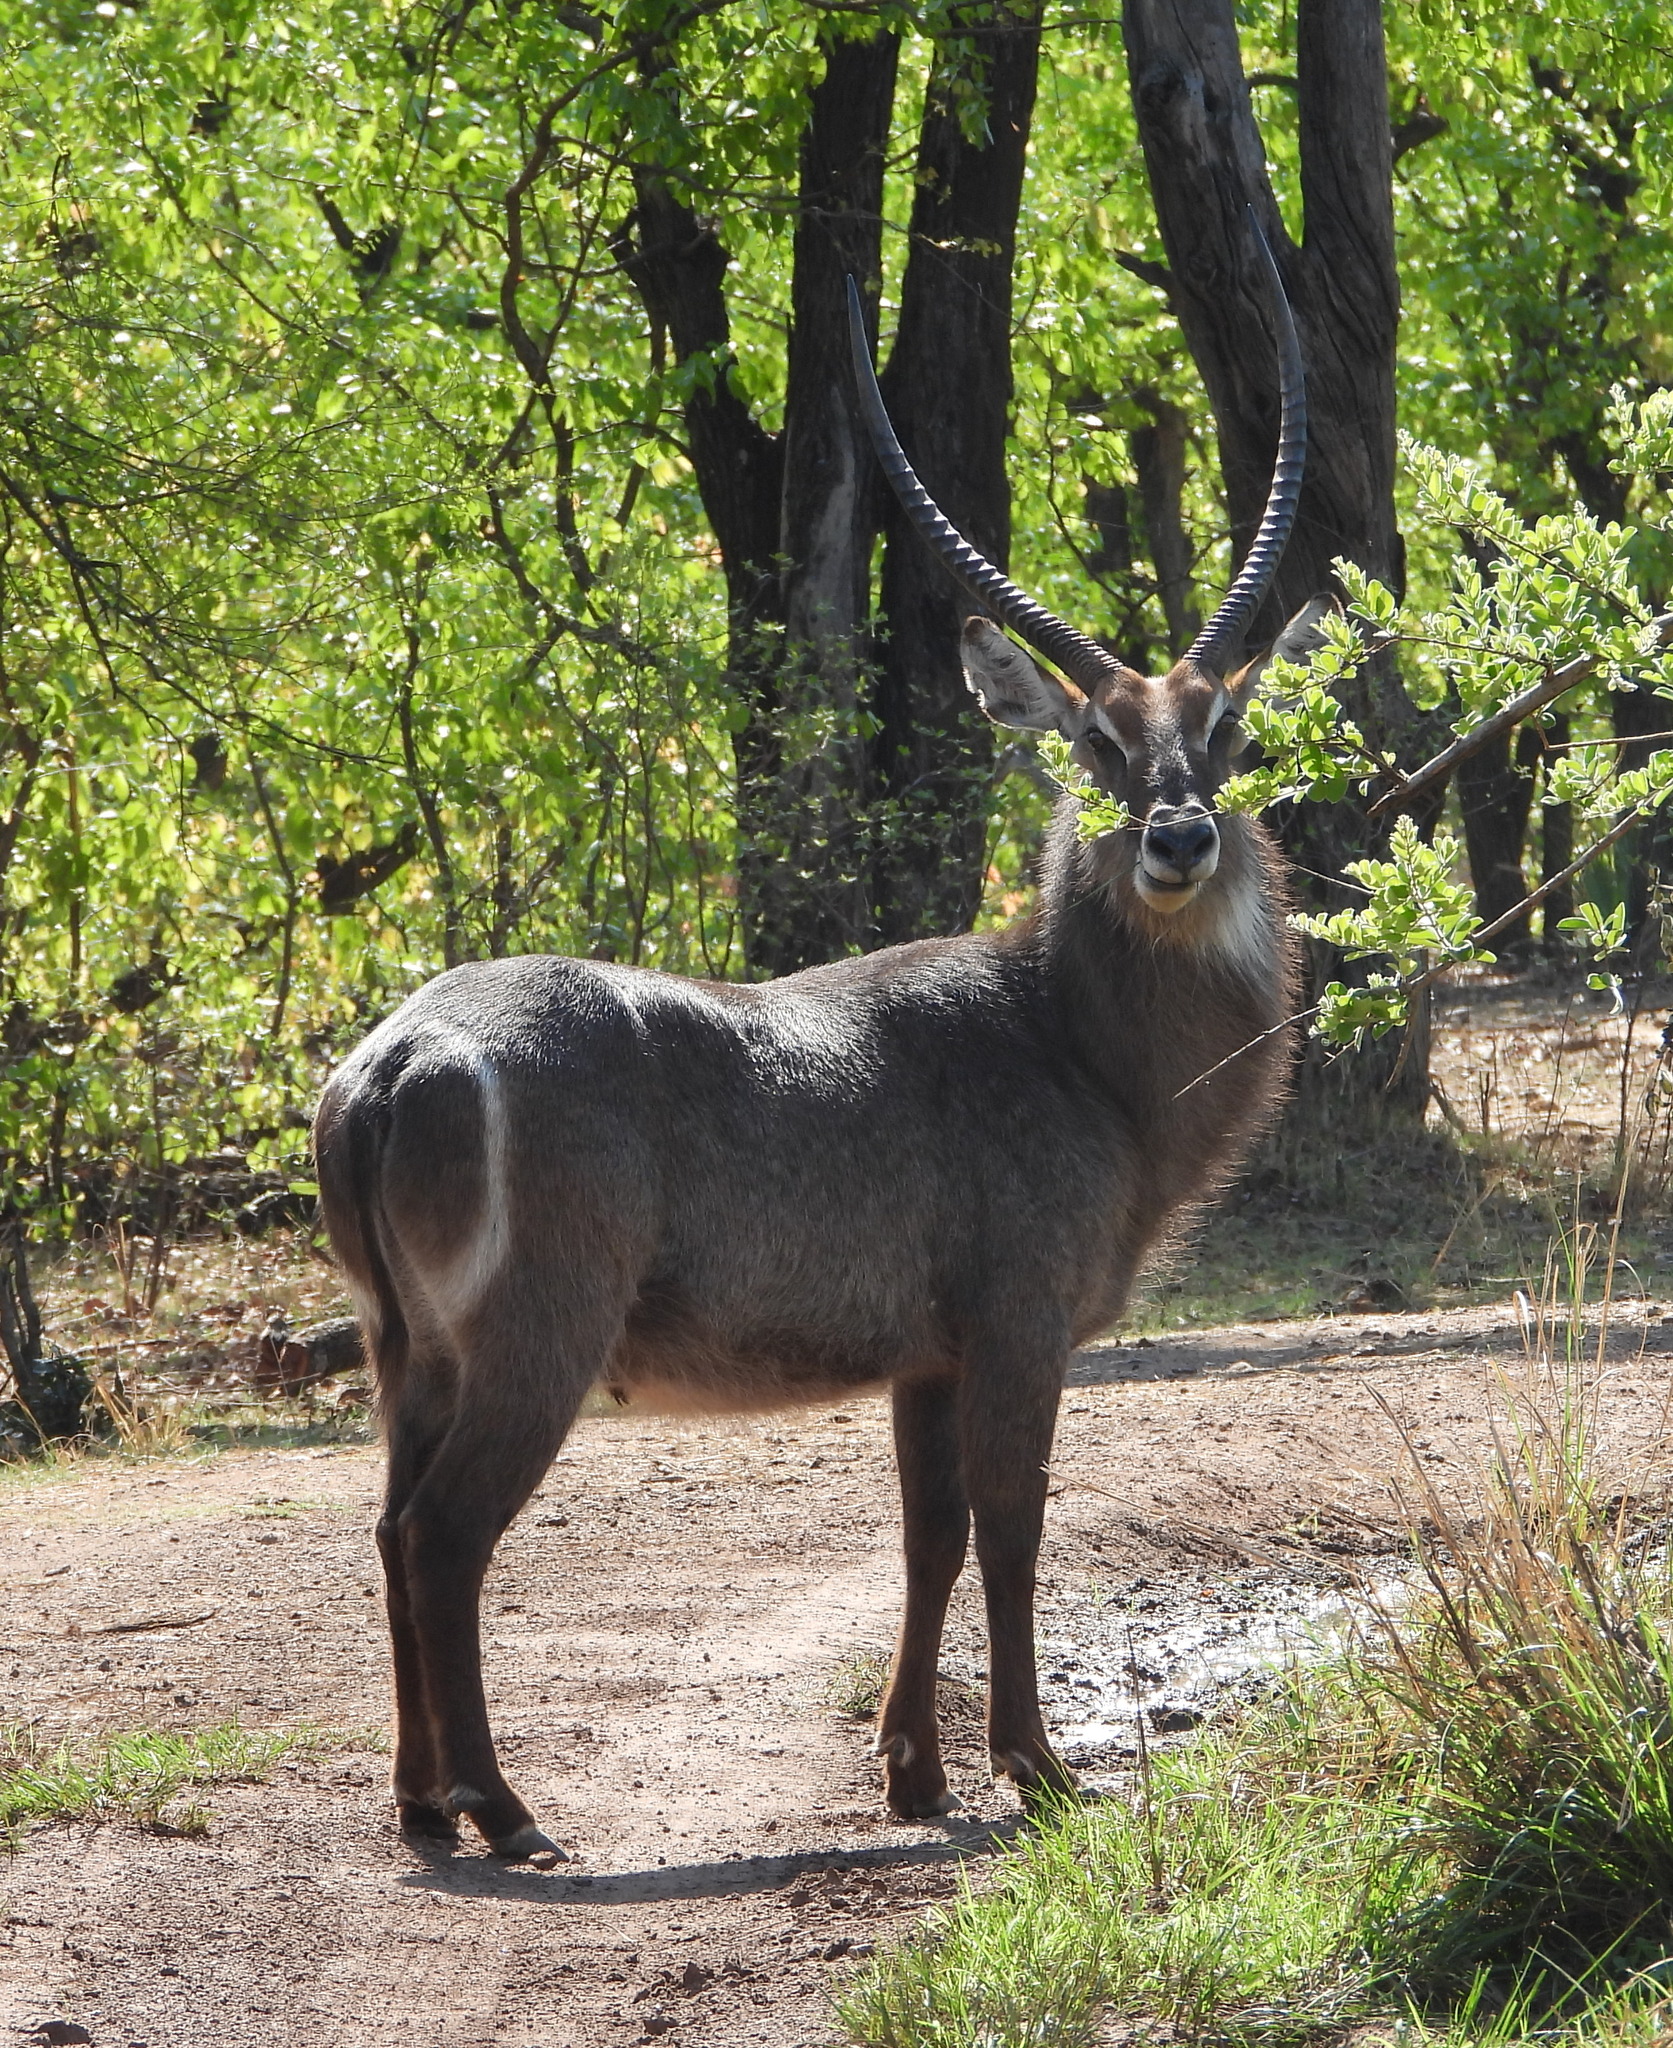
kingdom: Animalia
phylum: Chordata
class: Mammalia
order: Artiodactyla
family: Bovidae
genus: Kobus
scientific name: Kobus ellipsiprymnus
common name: Waterbuck
